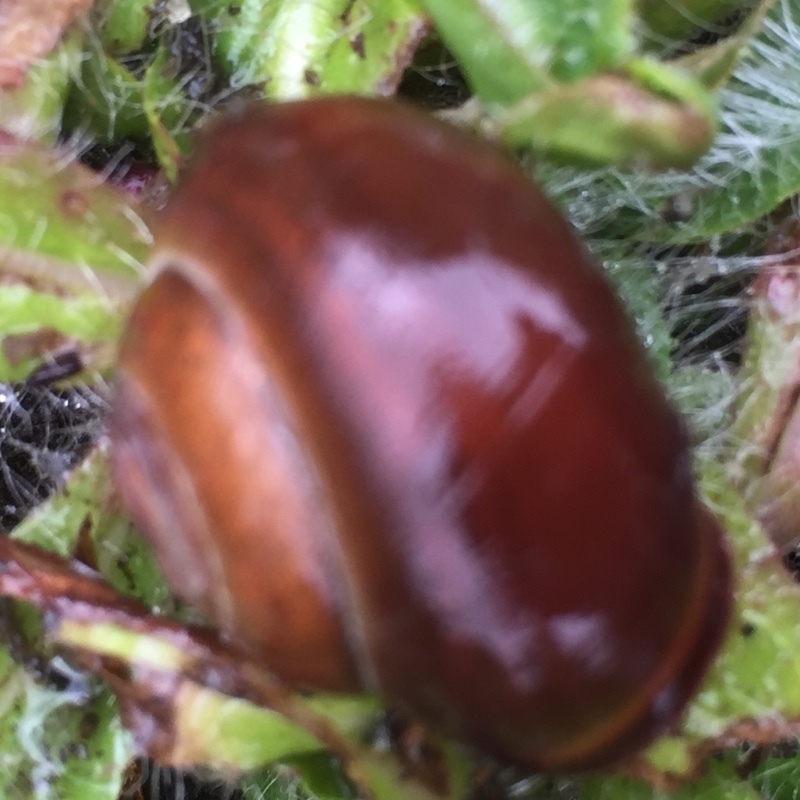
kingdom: Animalia
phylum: Mollusca
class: Gastropoda
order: Stylommatophora
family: Helicidae
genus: Cepaea
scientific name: Cepaea nemoralis
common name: Grovesnail
